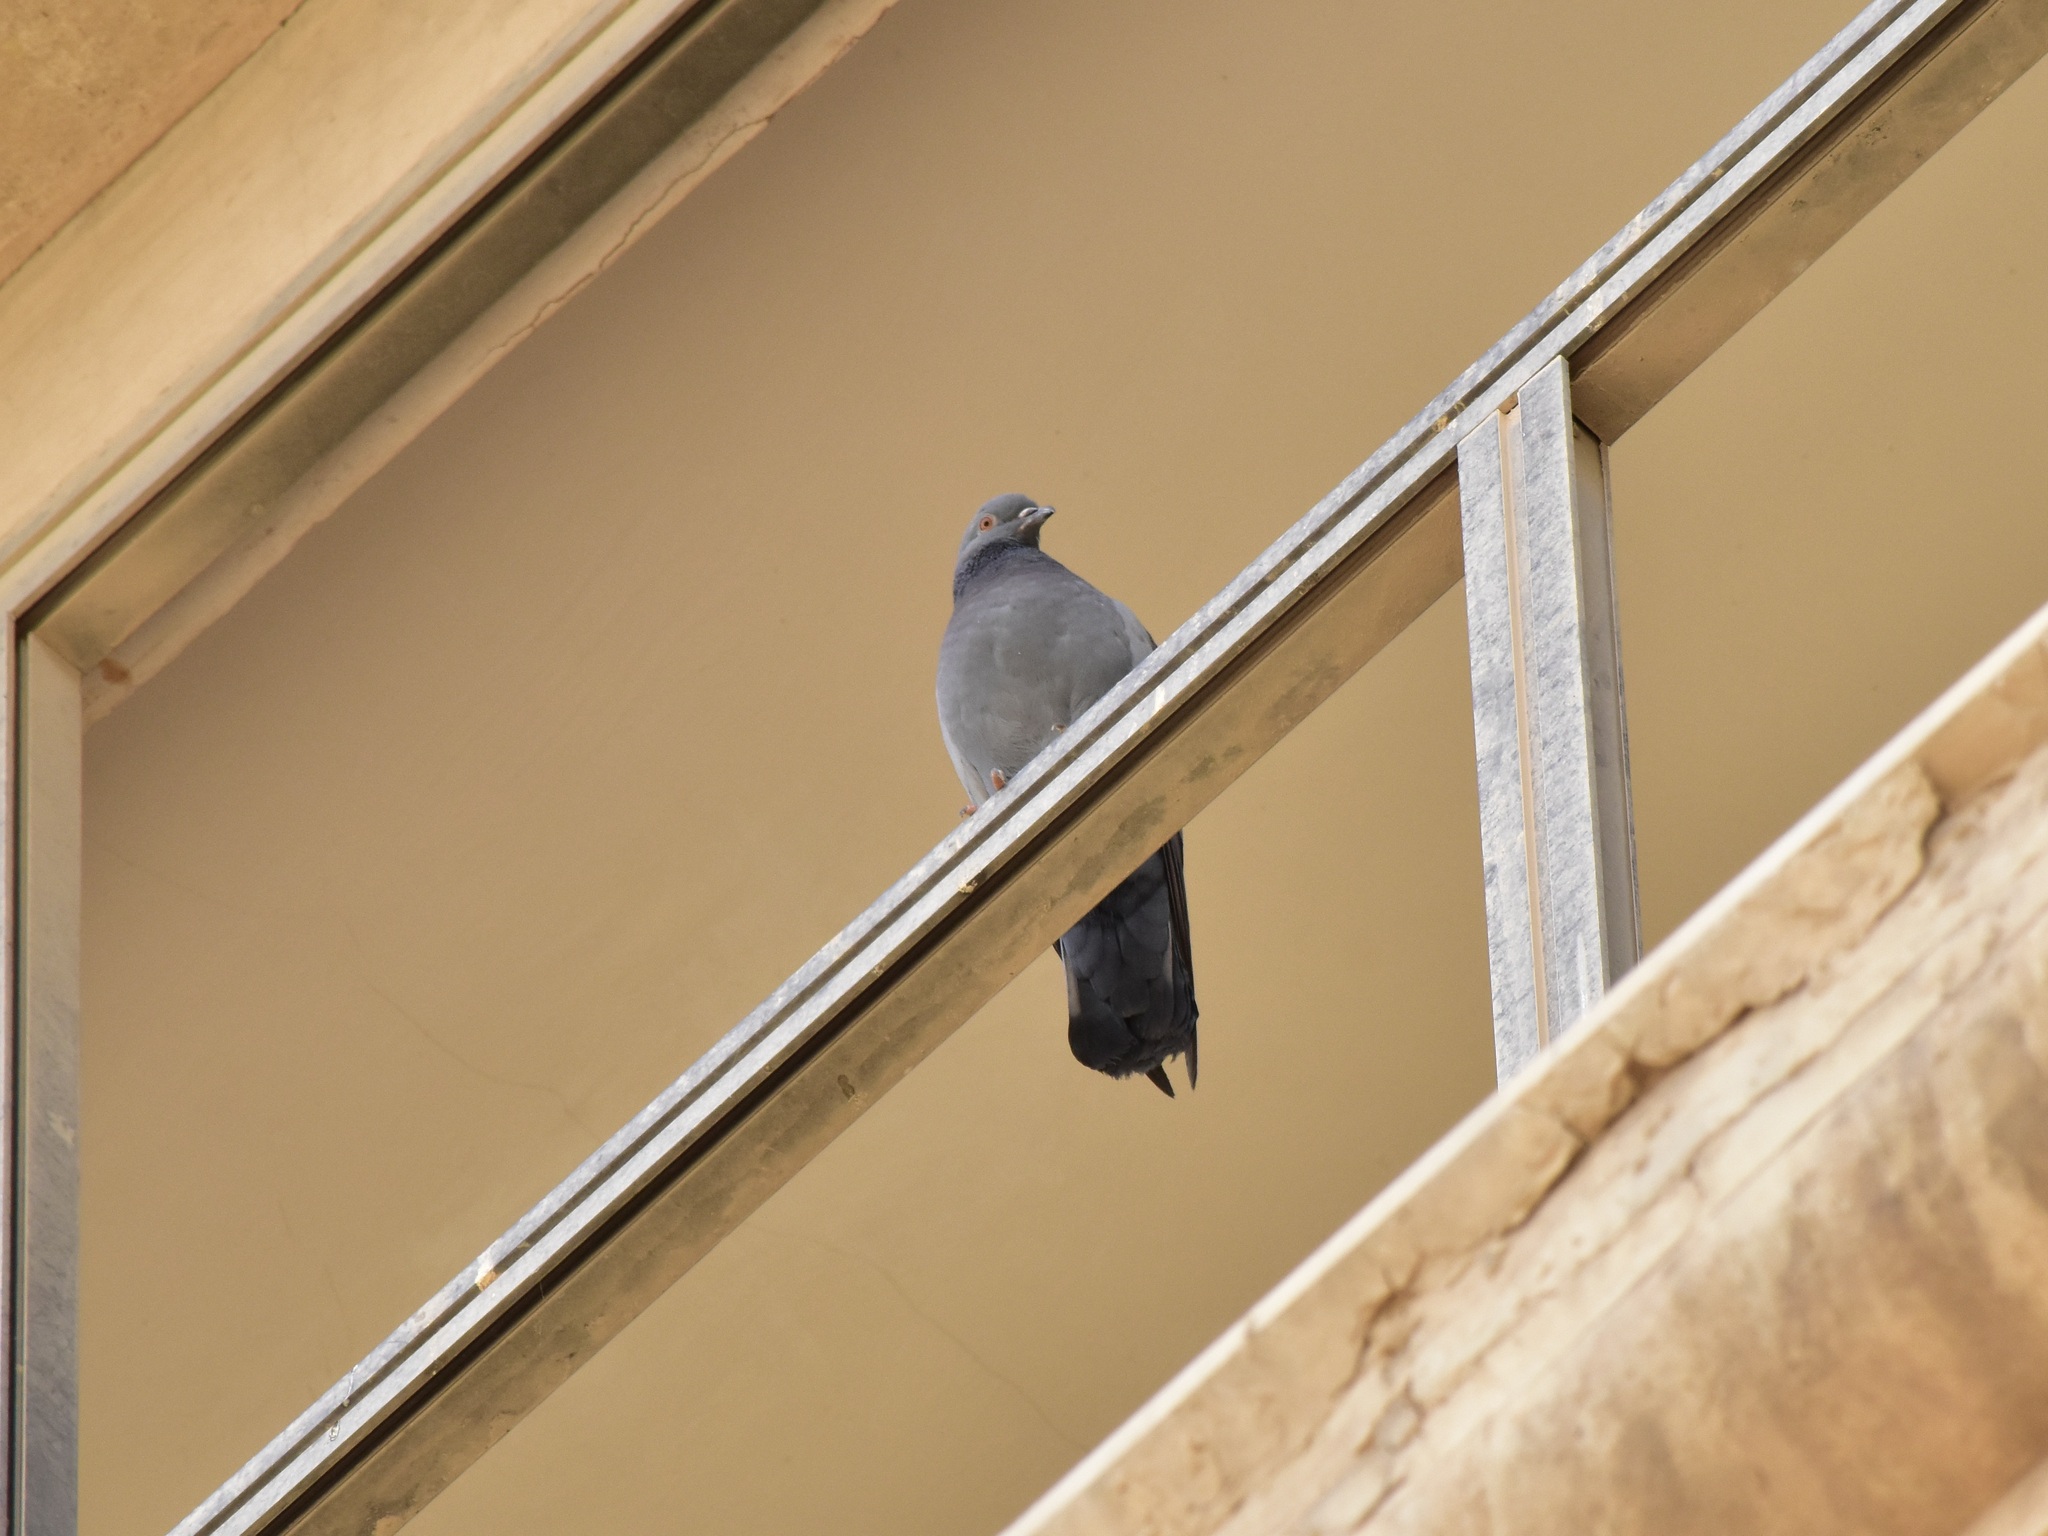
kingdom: Animalia
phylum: Chordata
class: Aves
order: Columbiformes
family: Columbidae
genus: Columba
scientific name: Columba livia
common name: Rock pigeon
